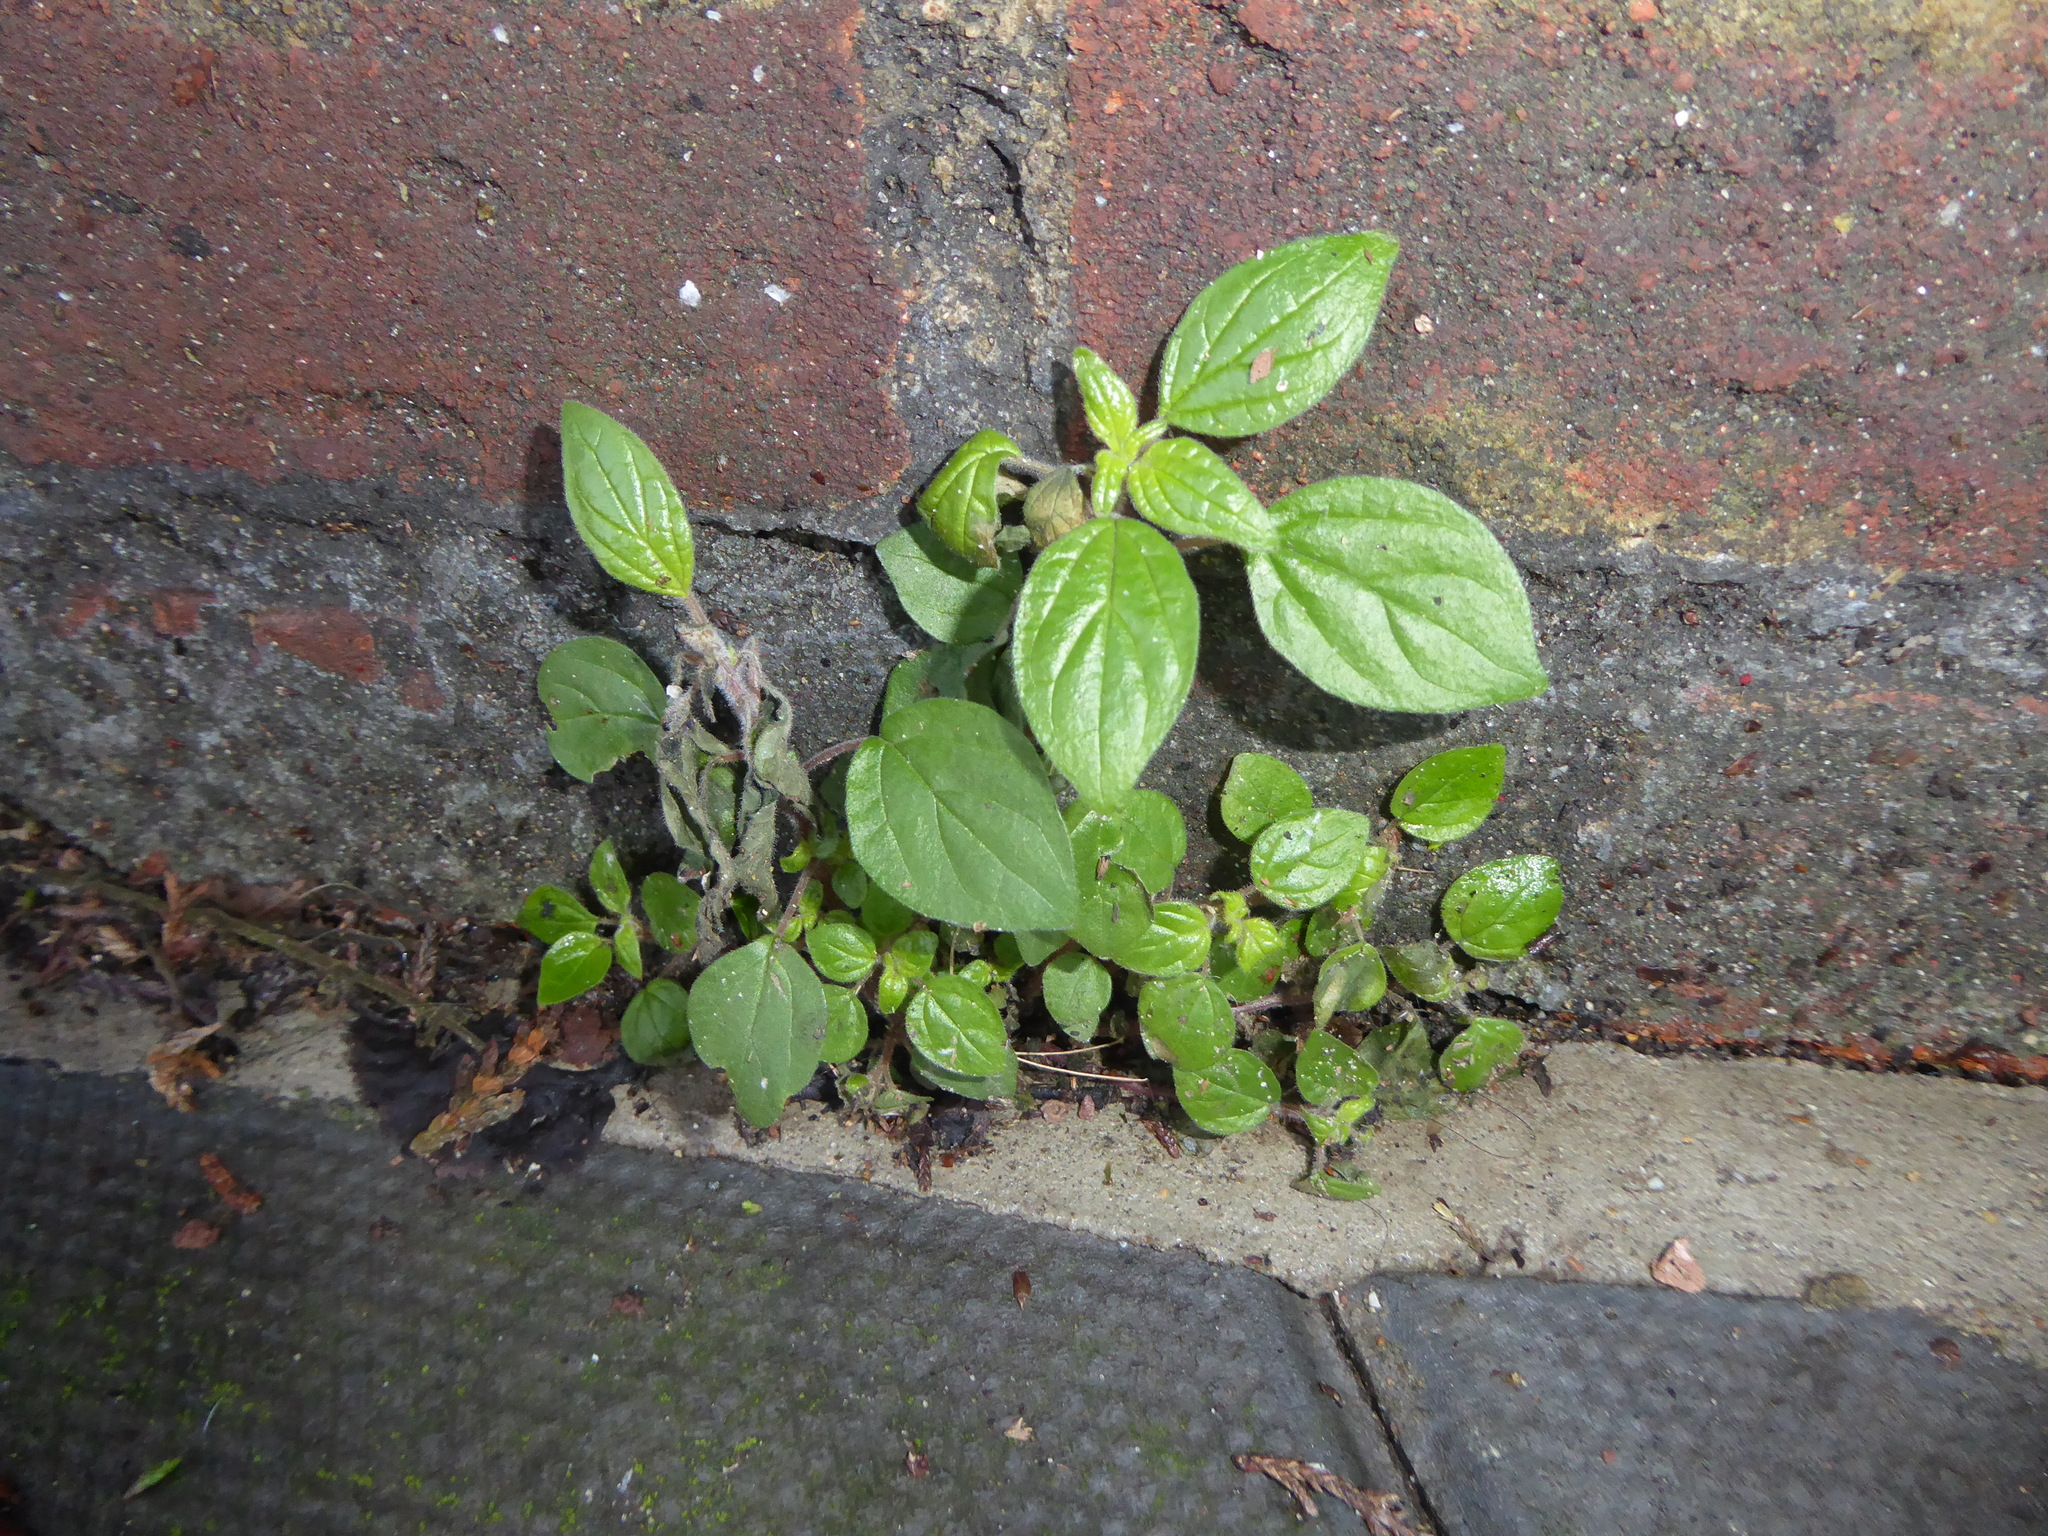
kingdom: Plantae
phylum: Tracheophyta
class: Magnoliopsida
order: Rosales
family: Urticaceae
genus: Parietaria
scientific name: Parietaria judaica
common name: Pellitory-of-the-wall
